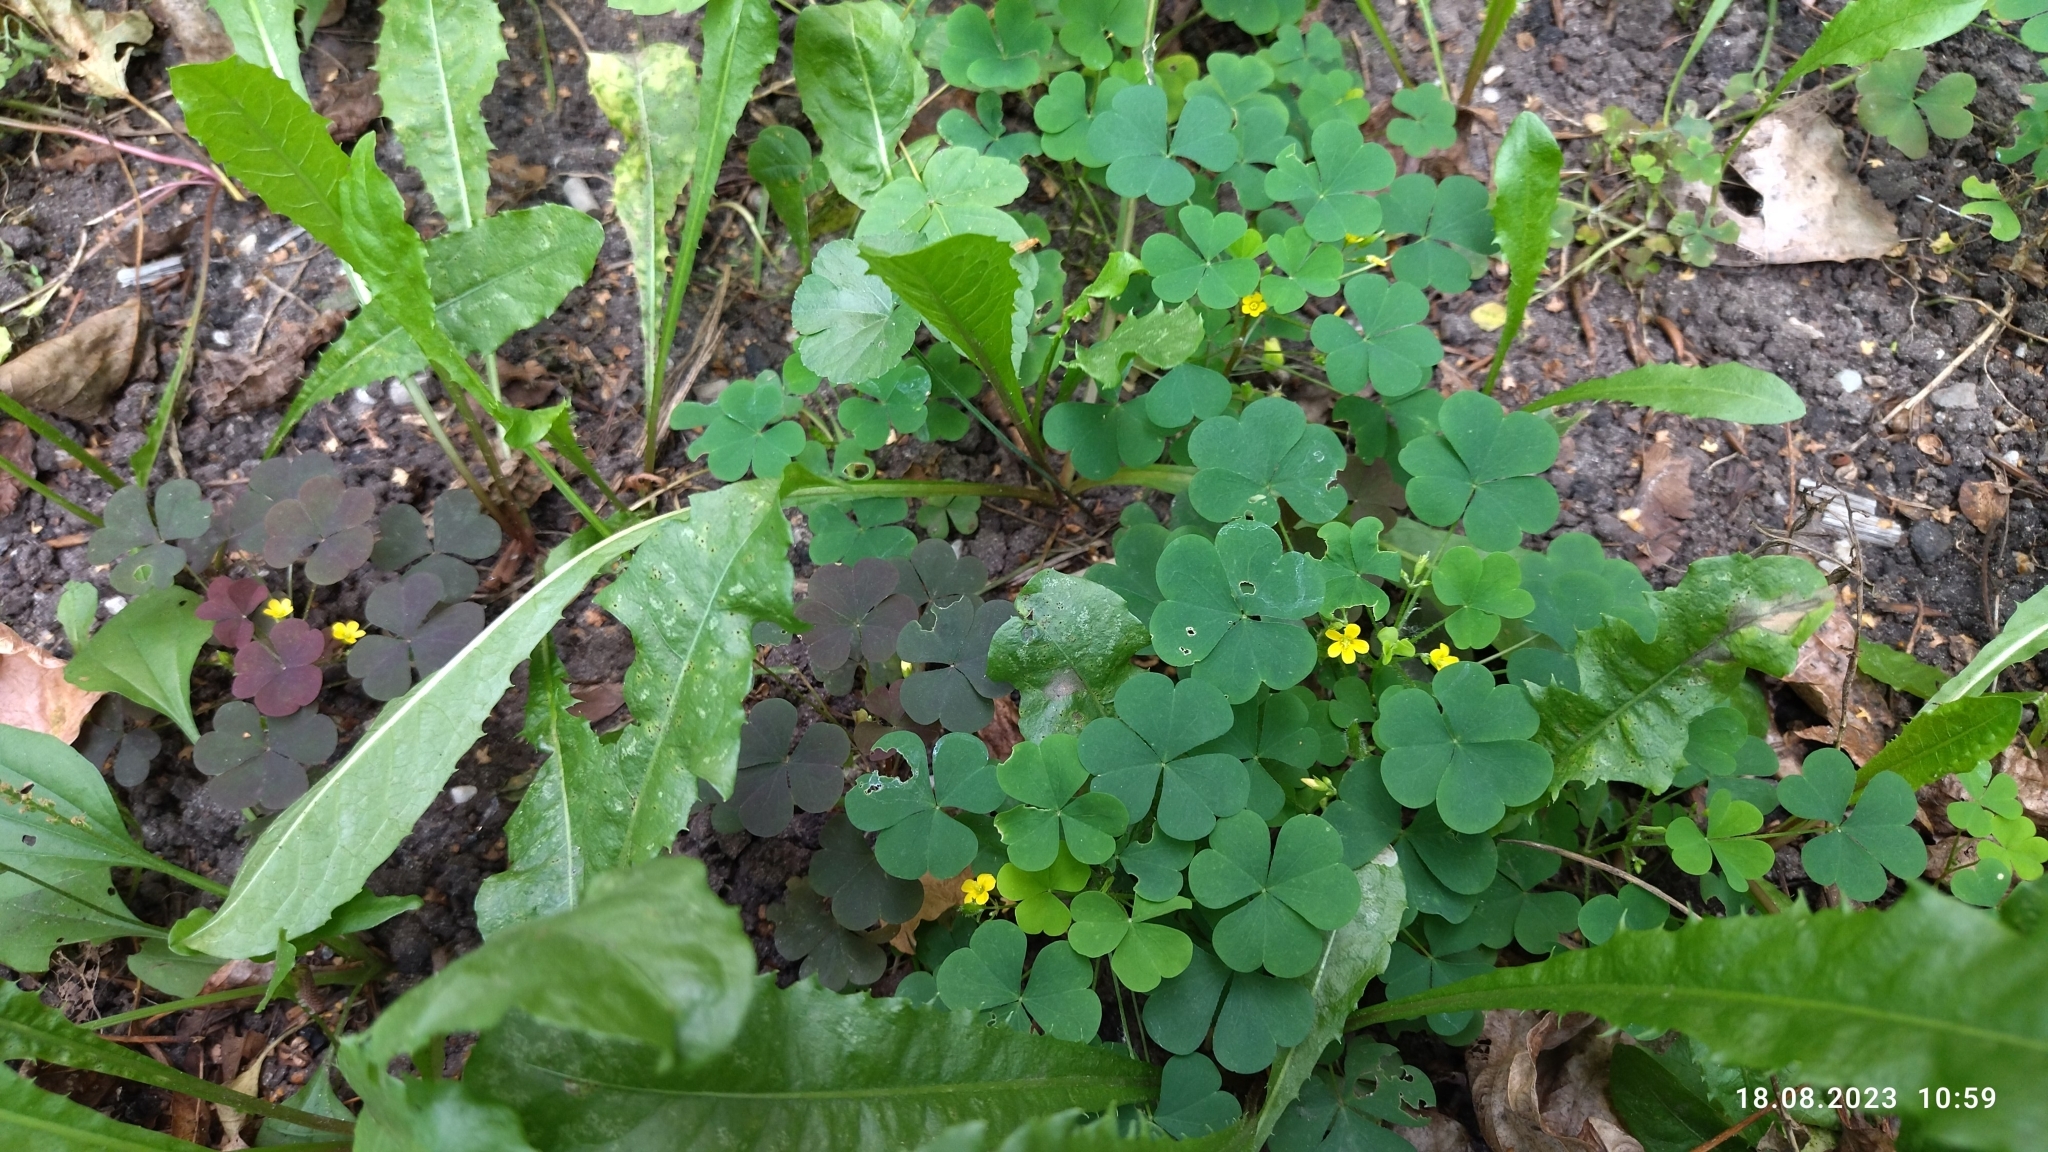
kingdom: Plantae
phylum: Tracheophyta
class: Magnoliopsida
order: Oxalidales
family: Oxalidaceae
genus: Oxalis
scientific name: Oxalis stricta
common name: Upright yellow-sorrel
